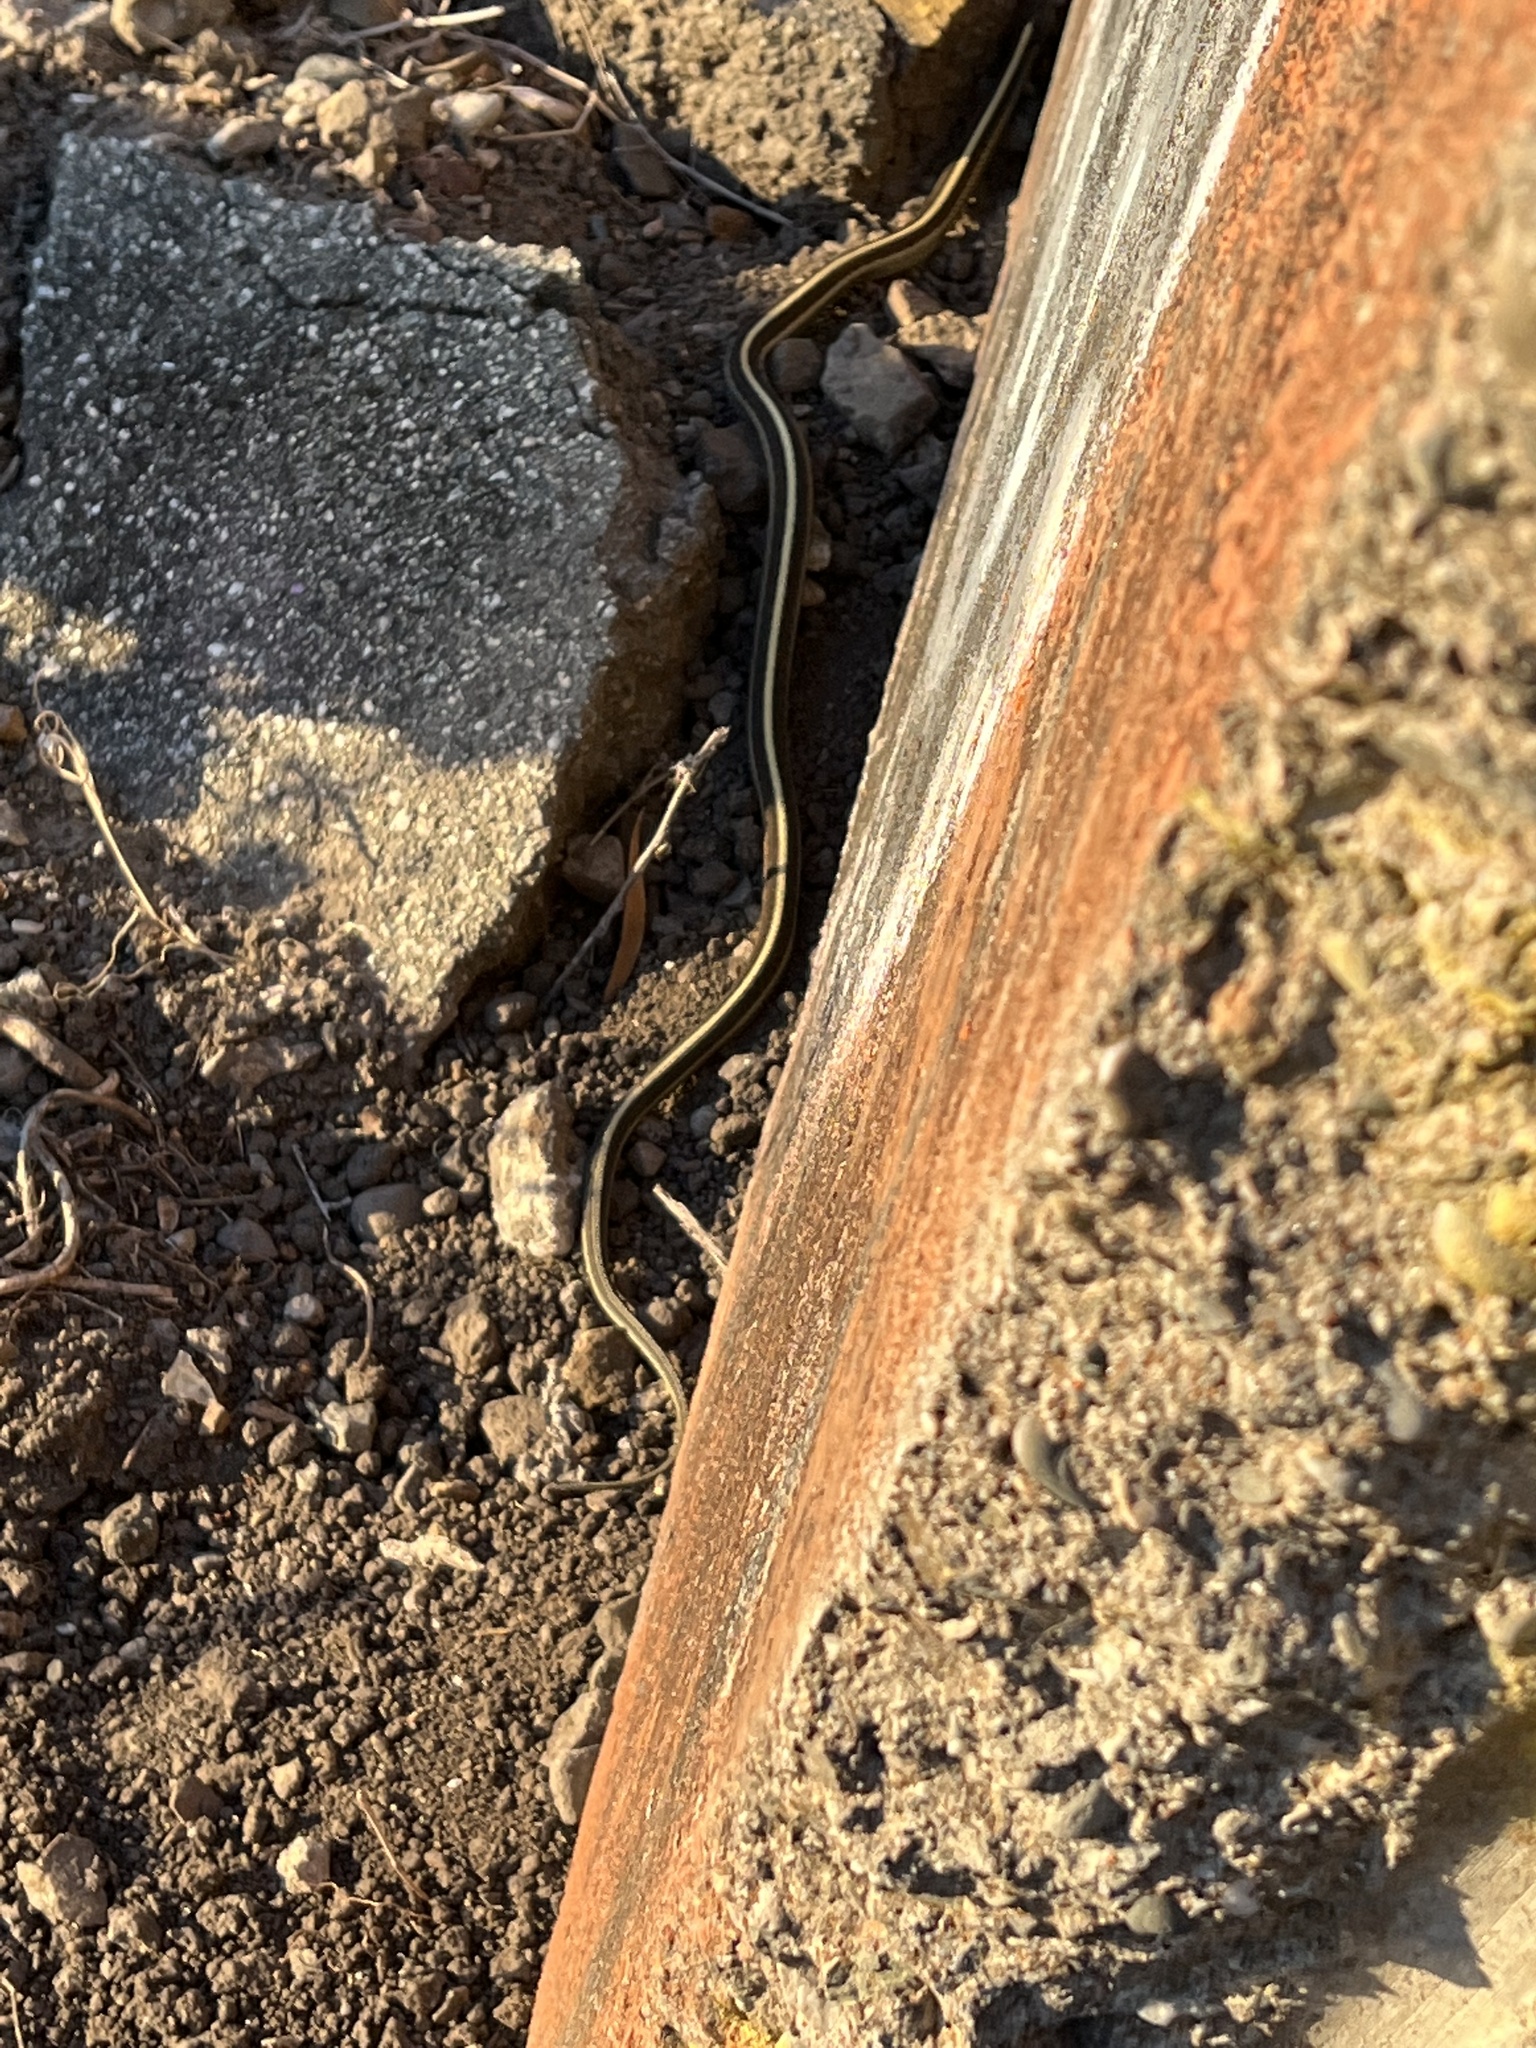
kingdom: Animalia
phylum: Chordata
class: Squamata
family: Colubridae
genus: Thamnophis
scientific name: Thamnophis elegans
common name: Western terrestrial garter snake
